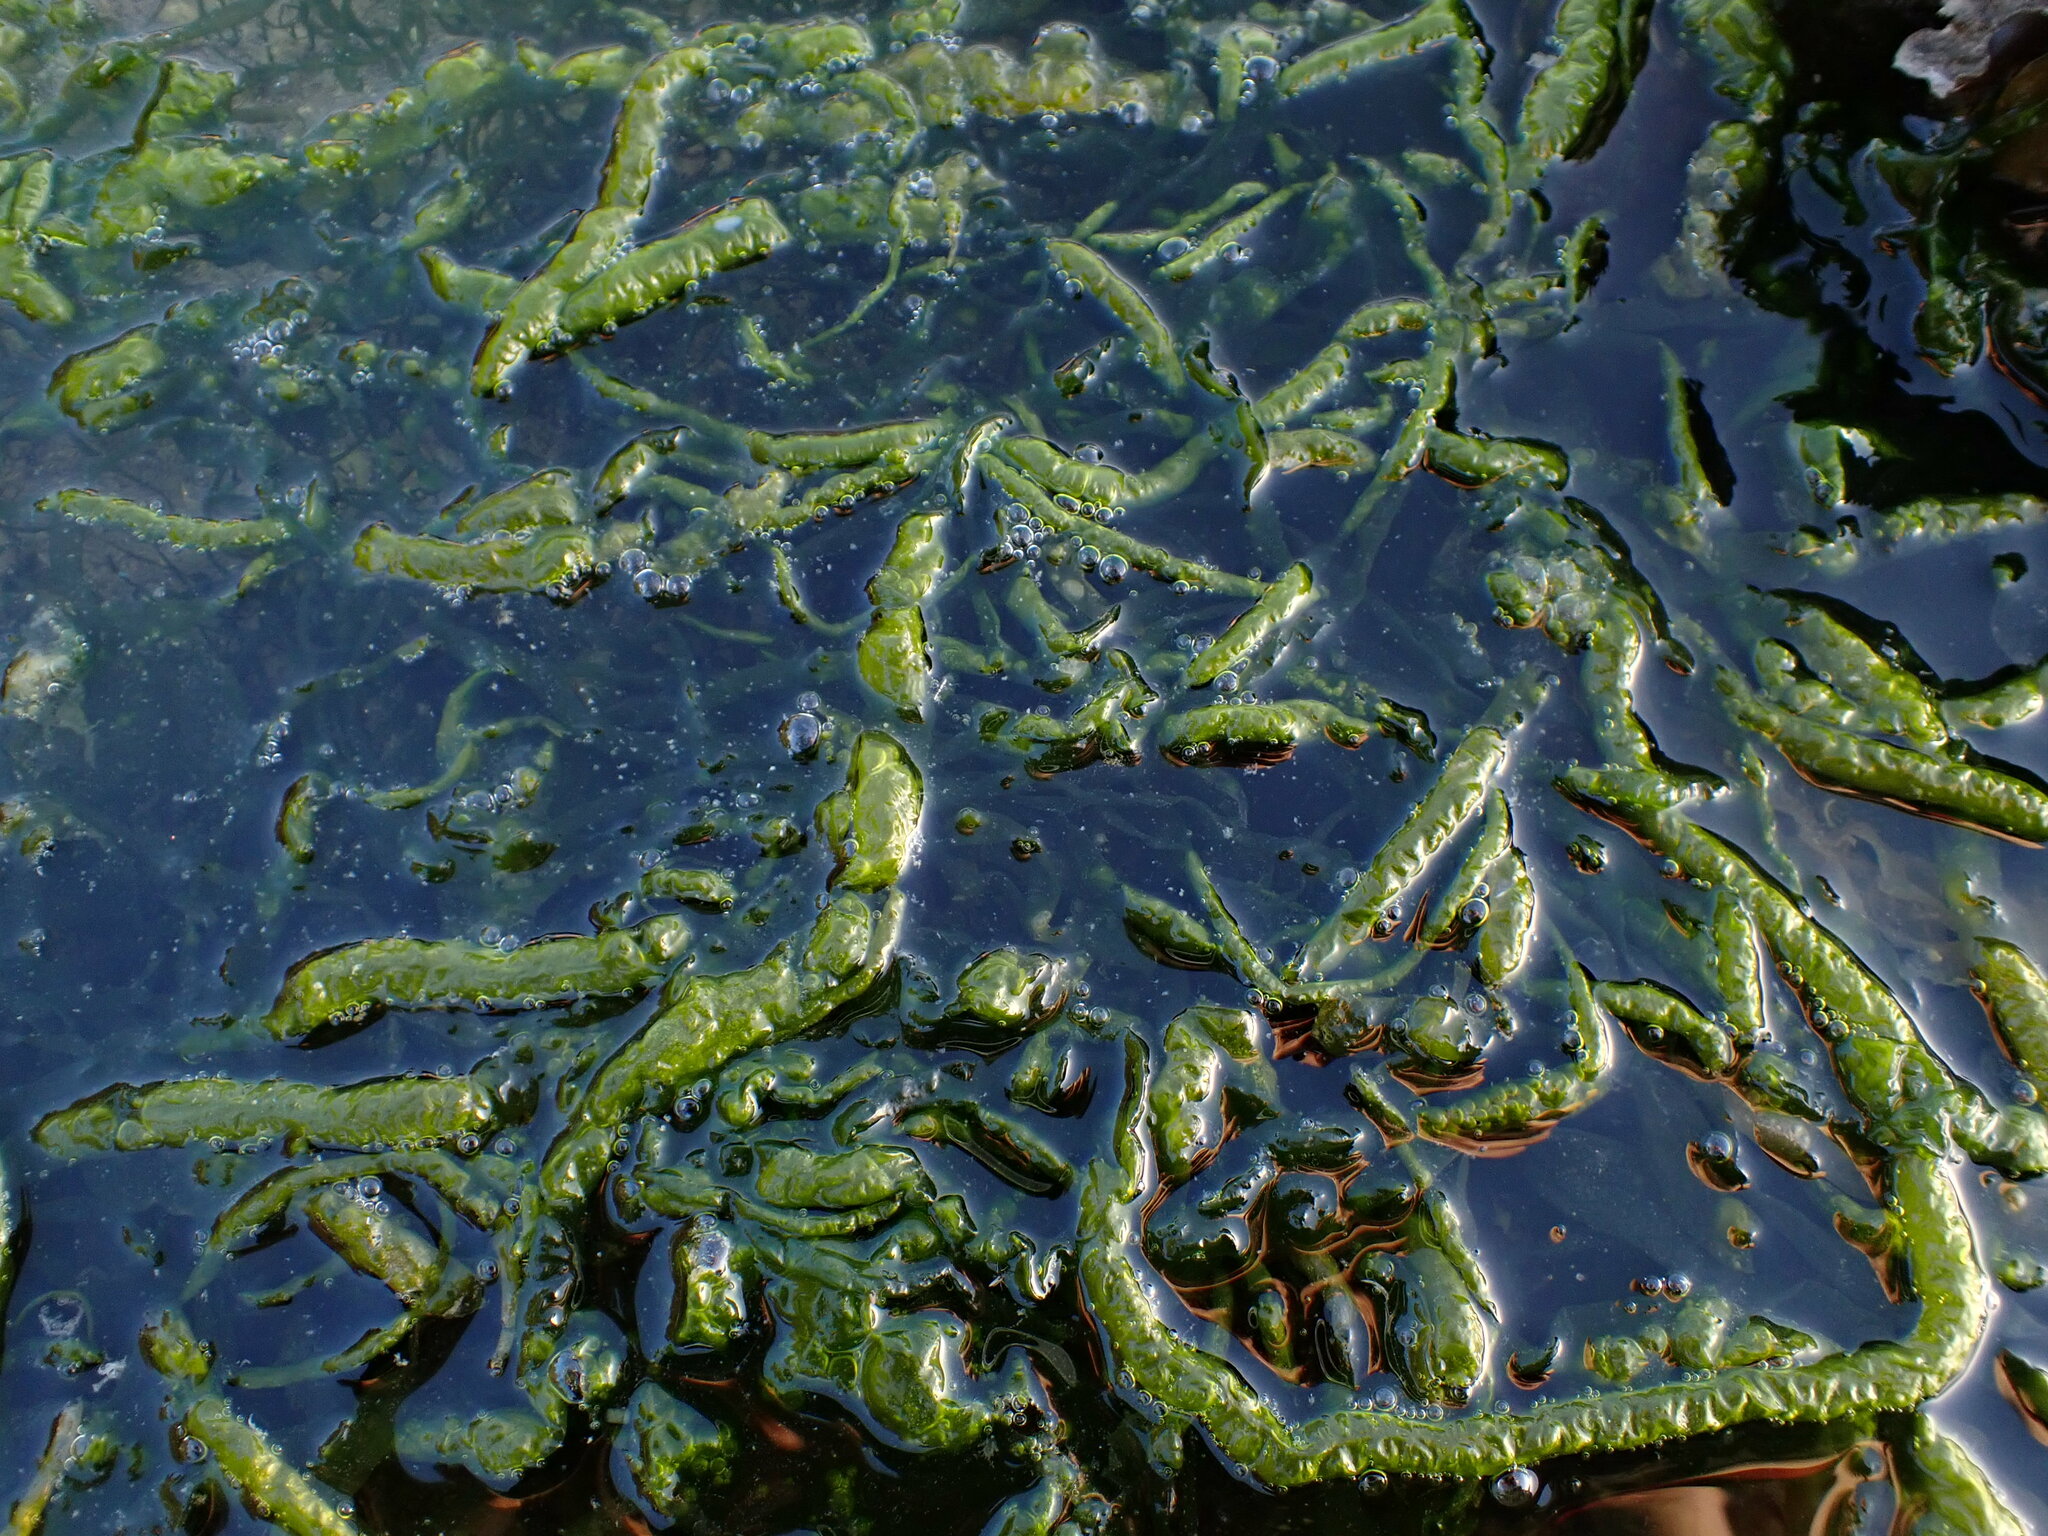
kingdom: Plantae
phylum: Chlorophyta
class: Ulvophyceae
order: Ulvales
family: Ulvaceae
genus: Ulva
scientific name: Ulva intestinalis
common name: Gut weed
